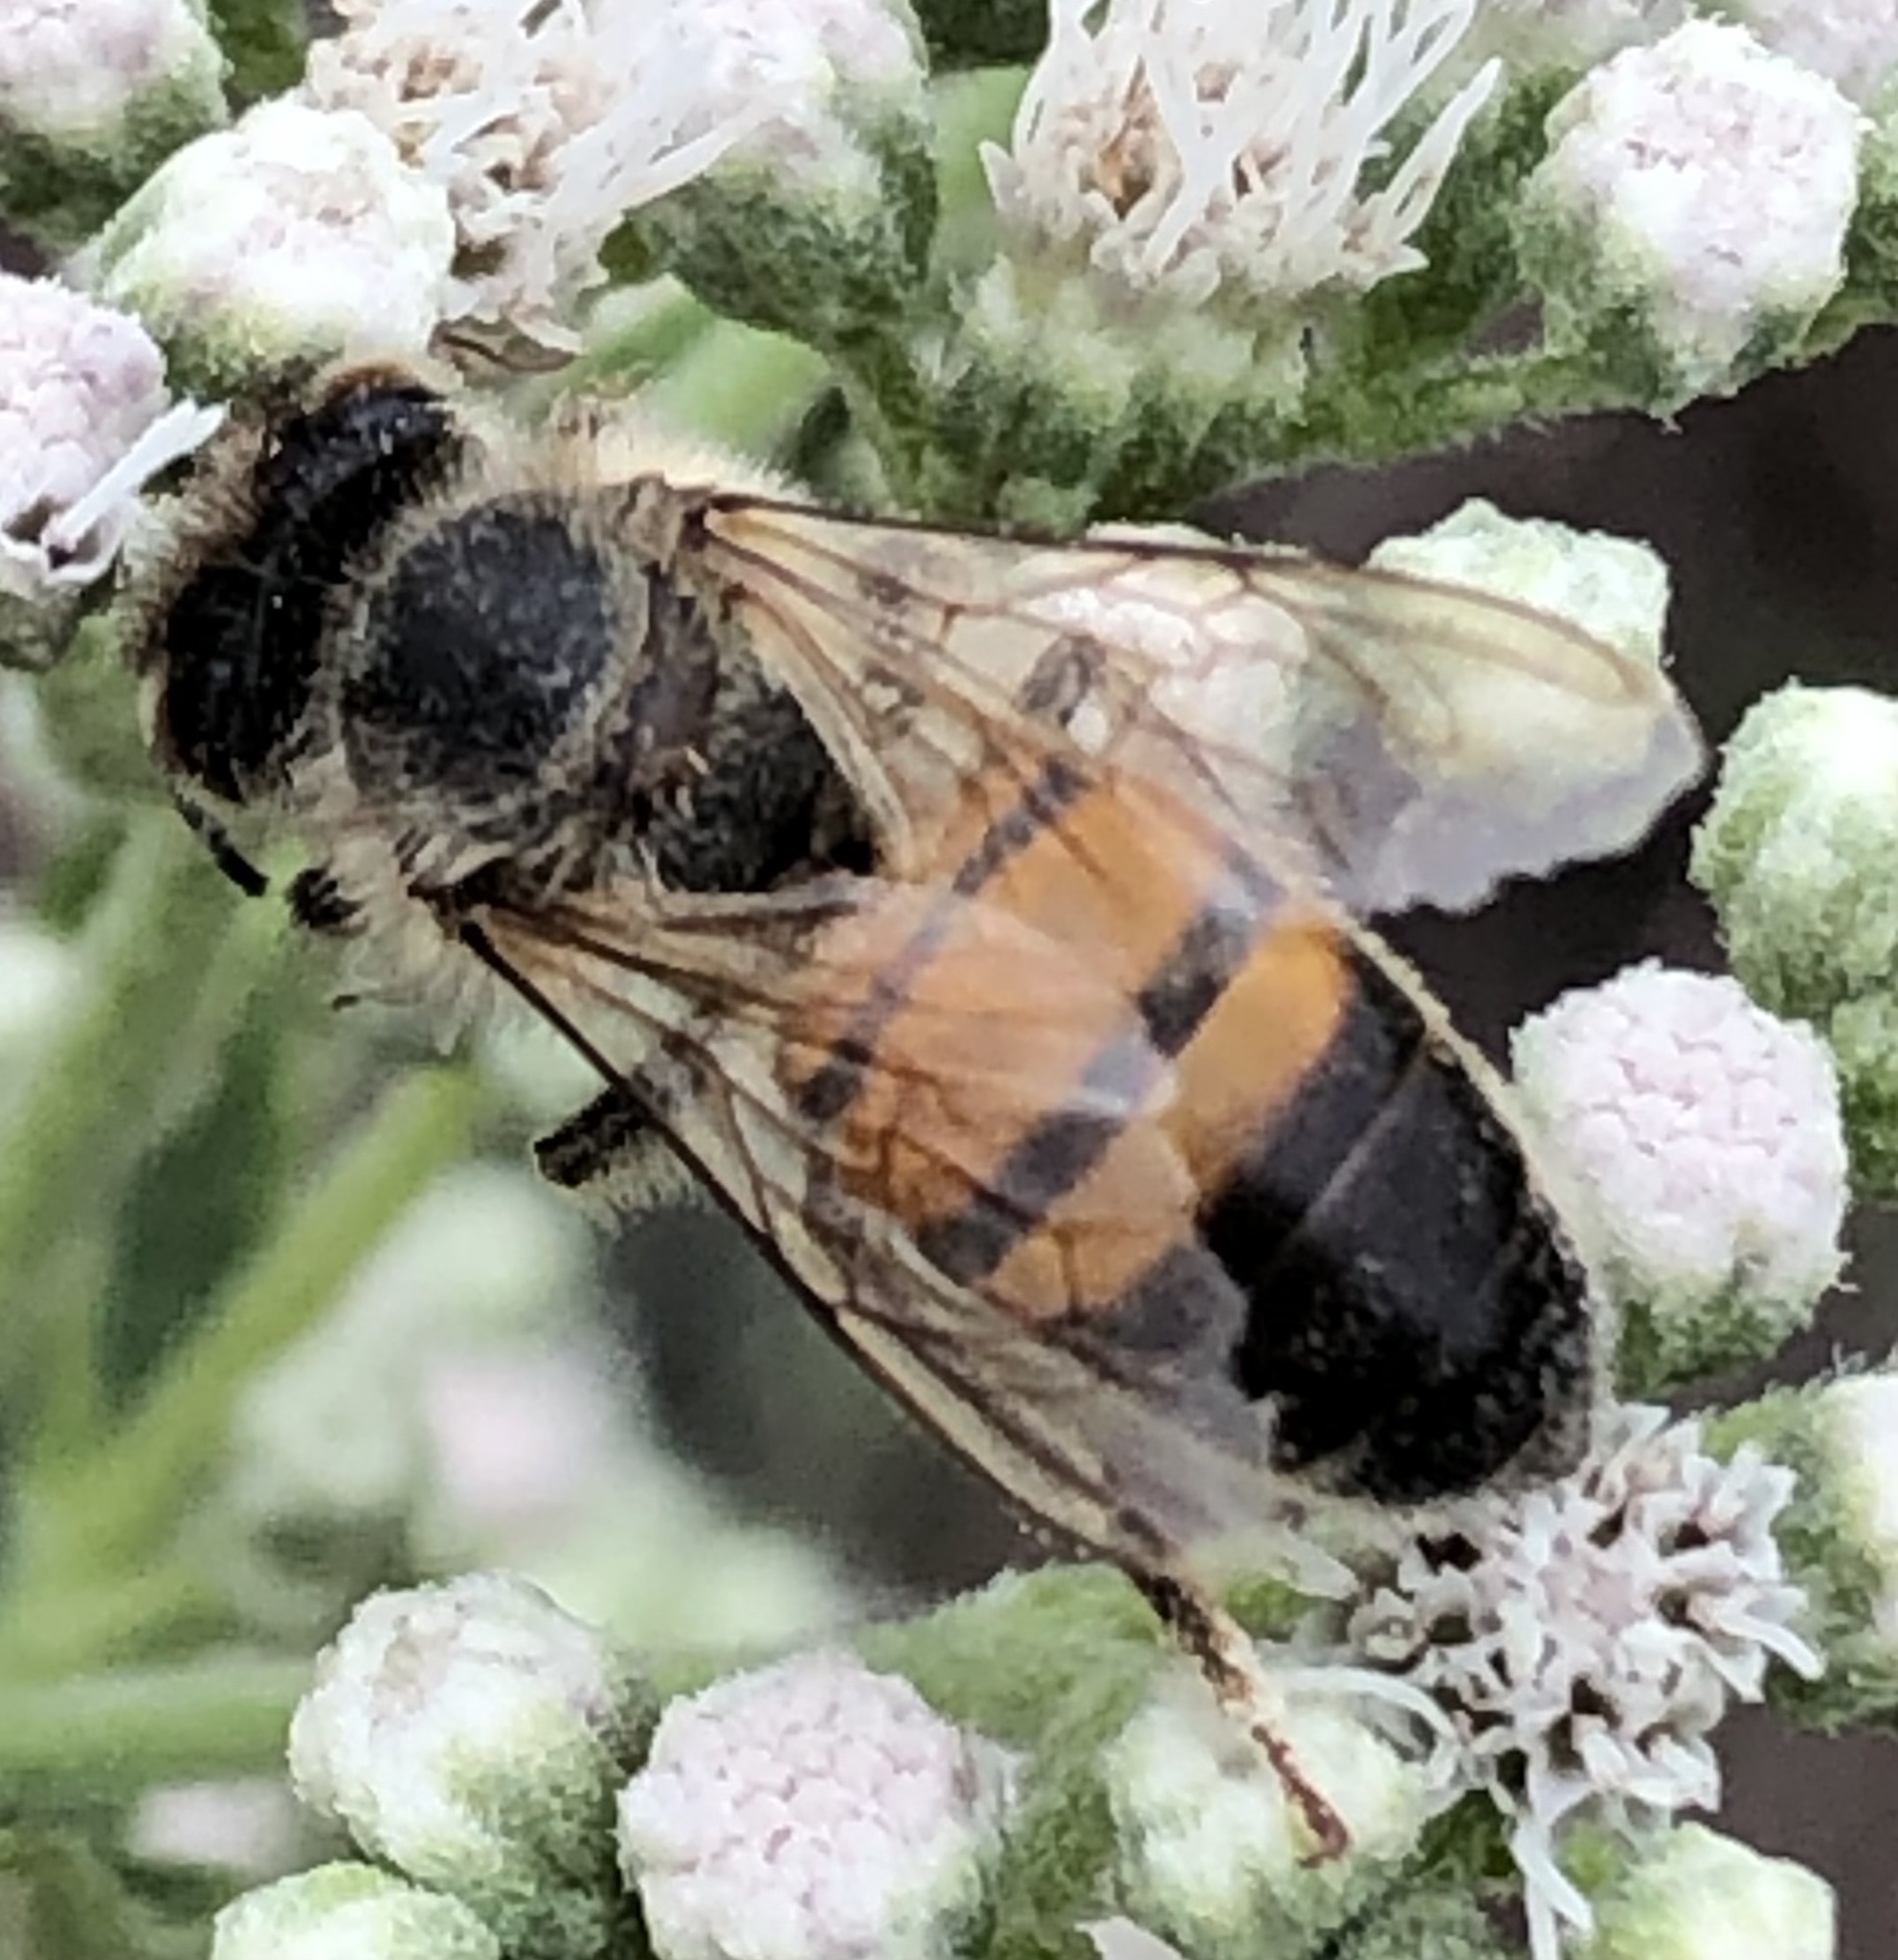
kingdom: Animalia
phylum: Arthropoda
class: Insecta
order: Hymenoptera
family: Apidae
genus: Apis
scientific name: Apis mellifera
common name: Honey bee
